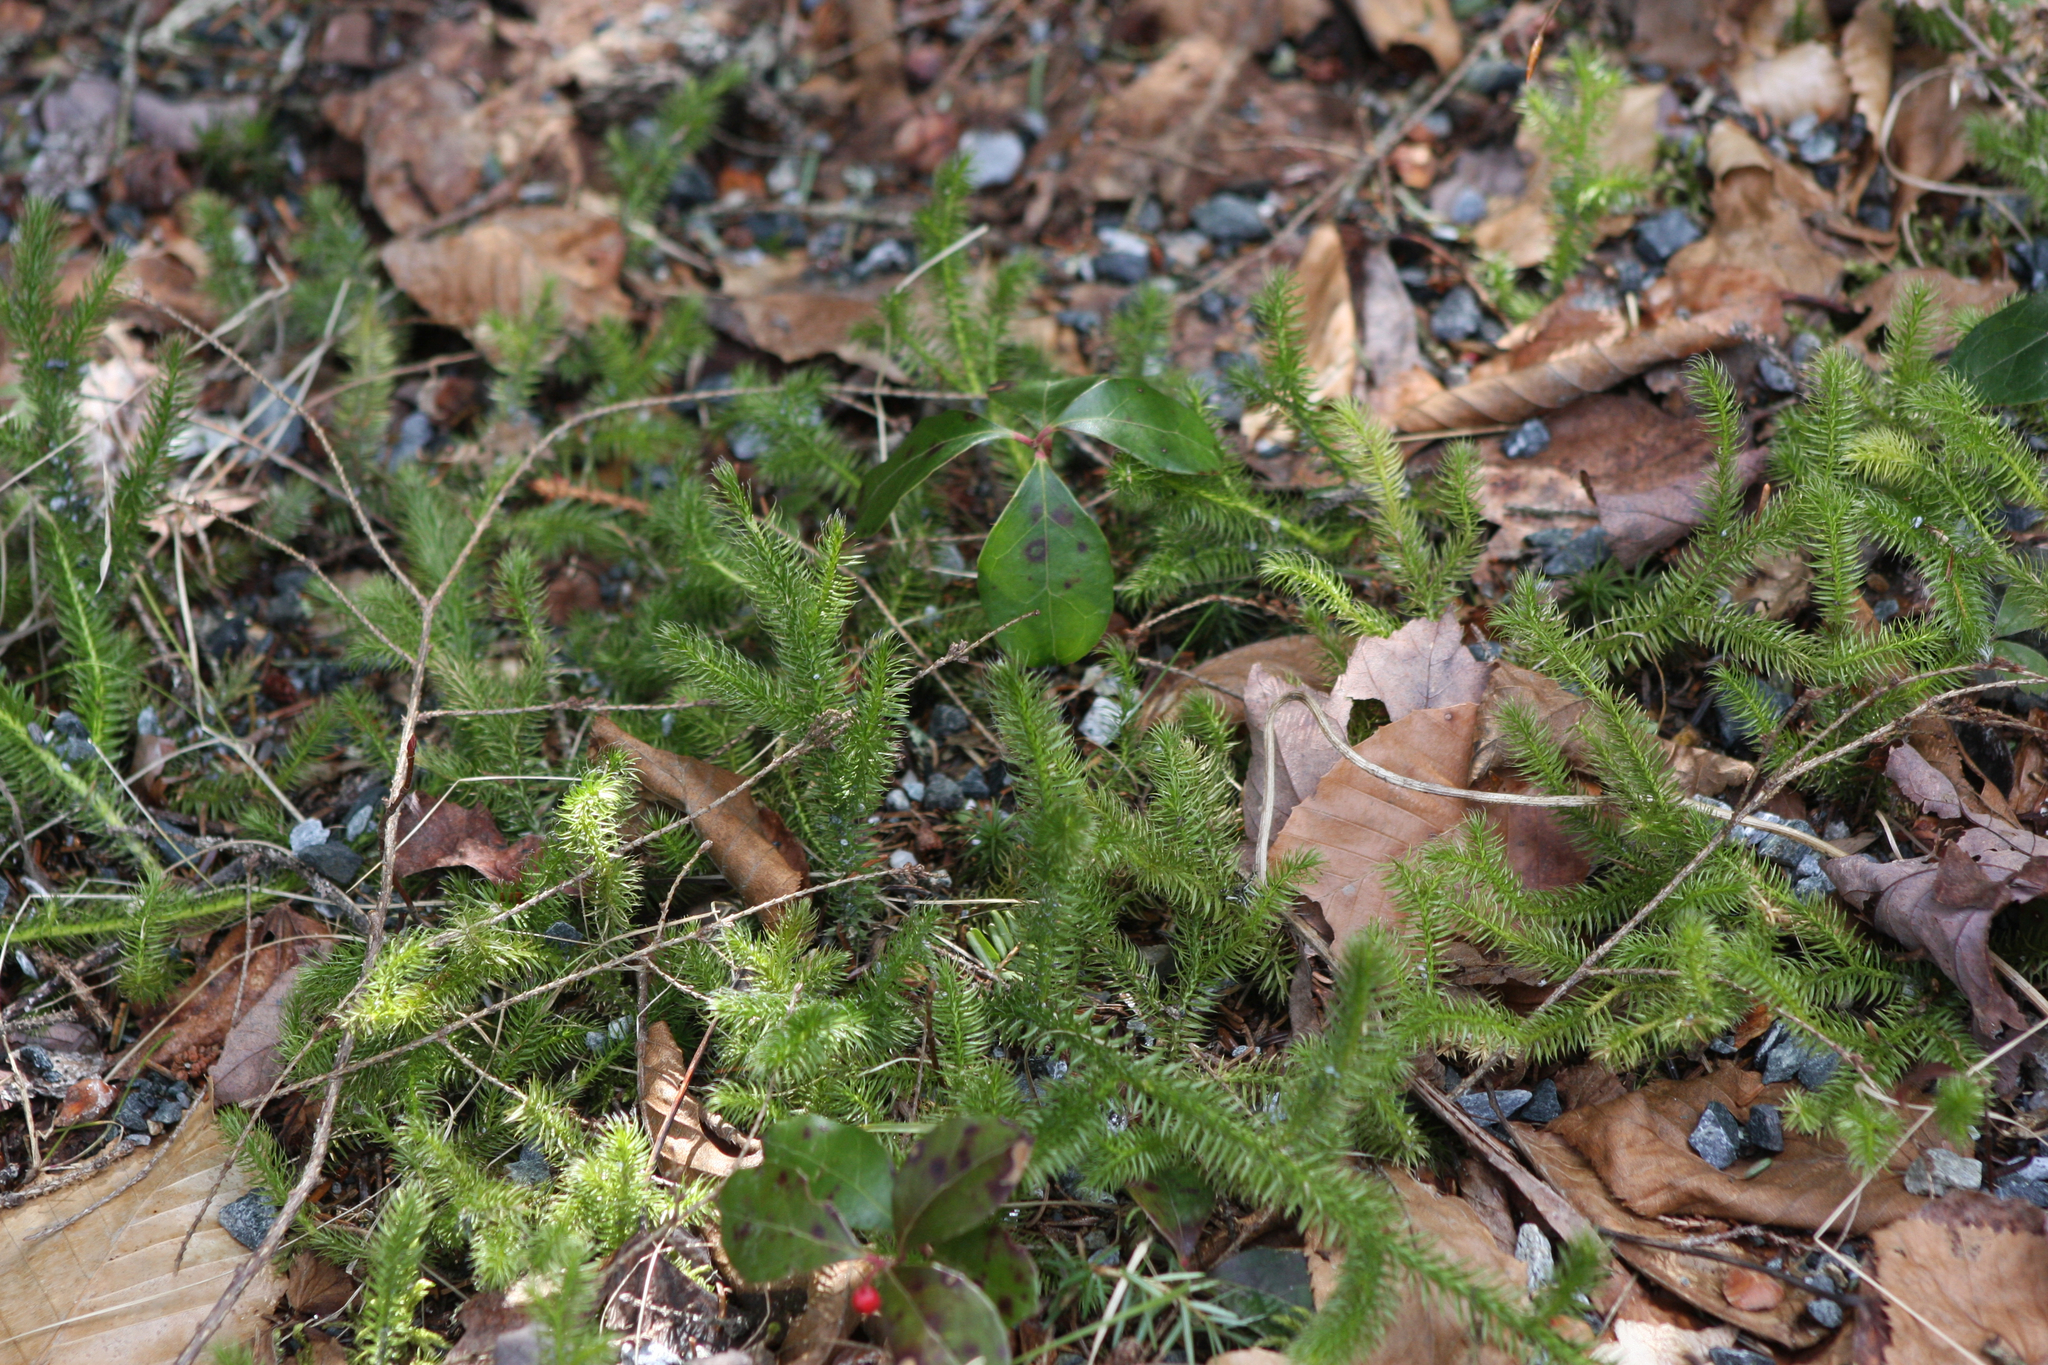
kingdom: Plantae
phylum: Tracheophyta
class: Lycopodiopsida
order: Lycopodiales
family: Lycopodiaceae
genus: Lycopodium
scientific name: Lycopodium clavatum
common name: Stag's-horn clubmoss
